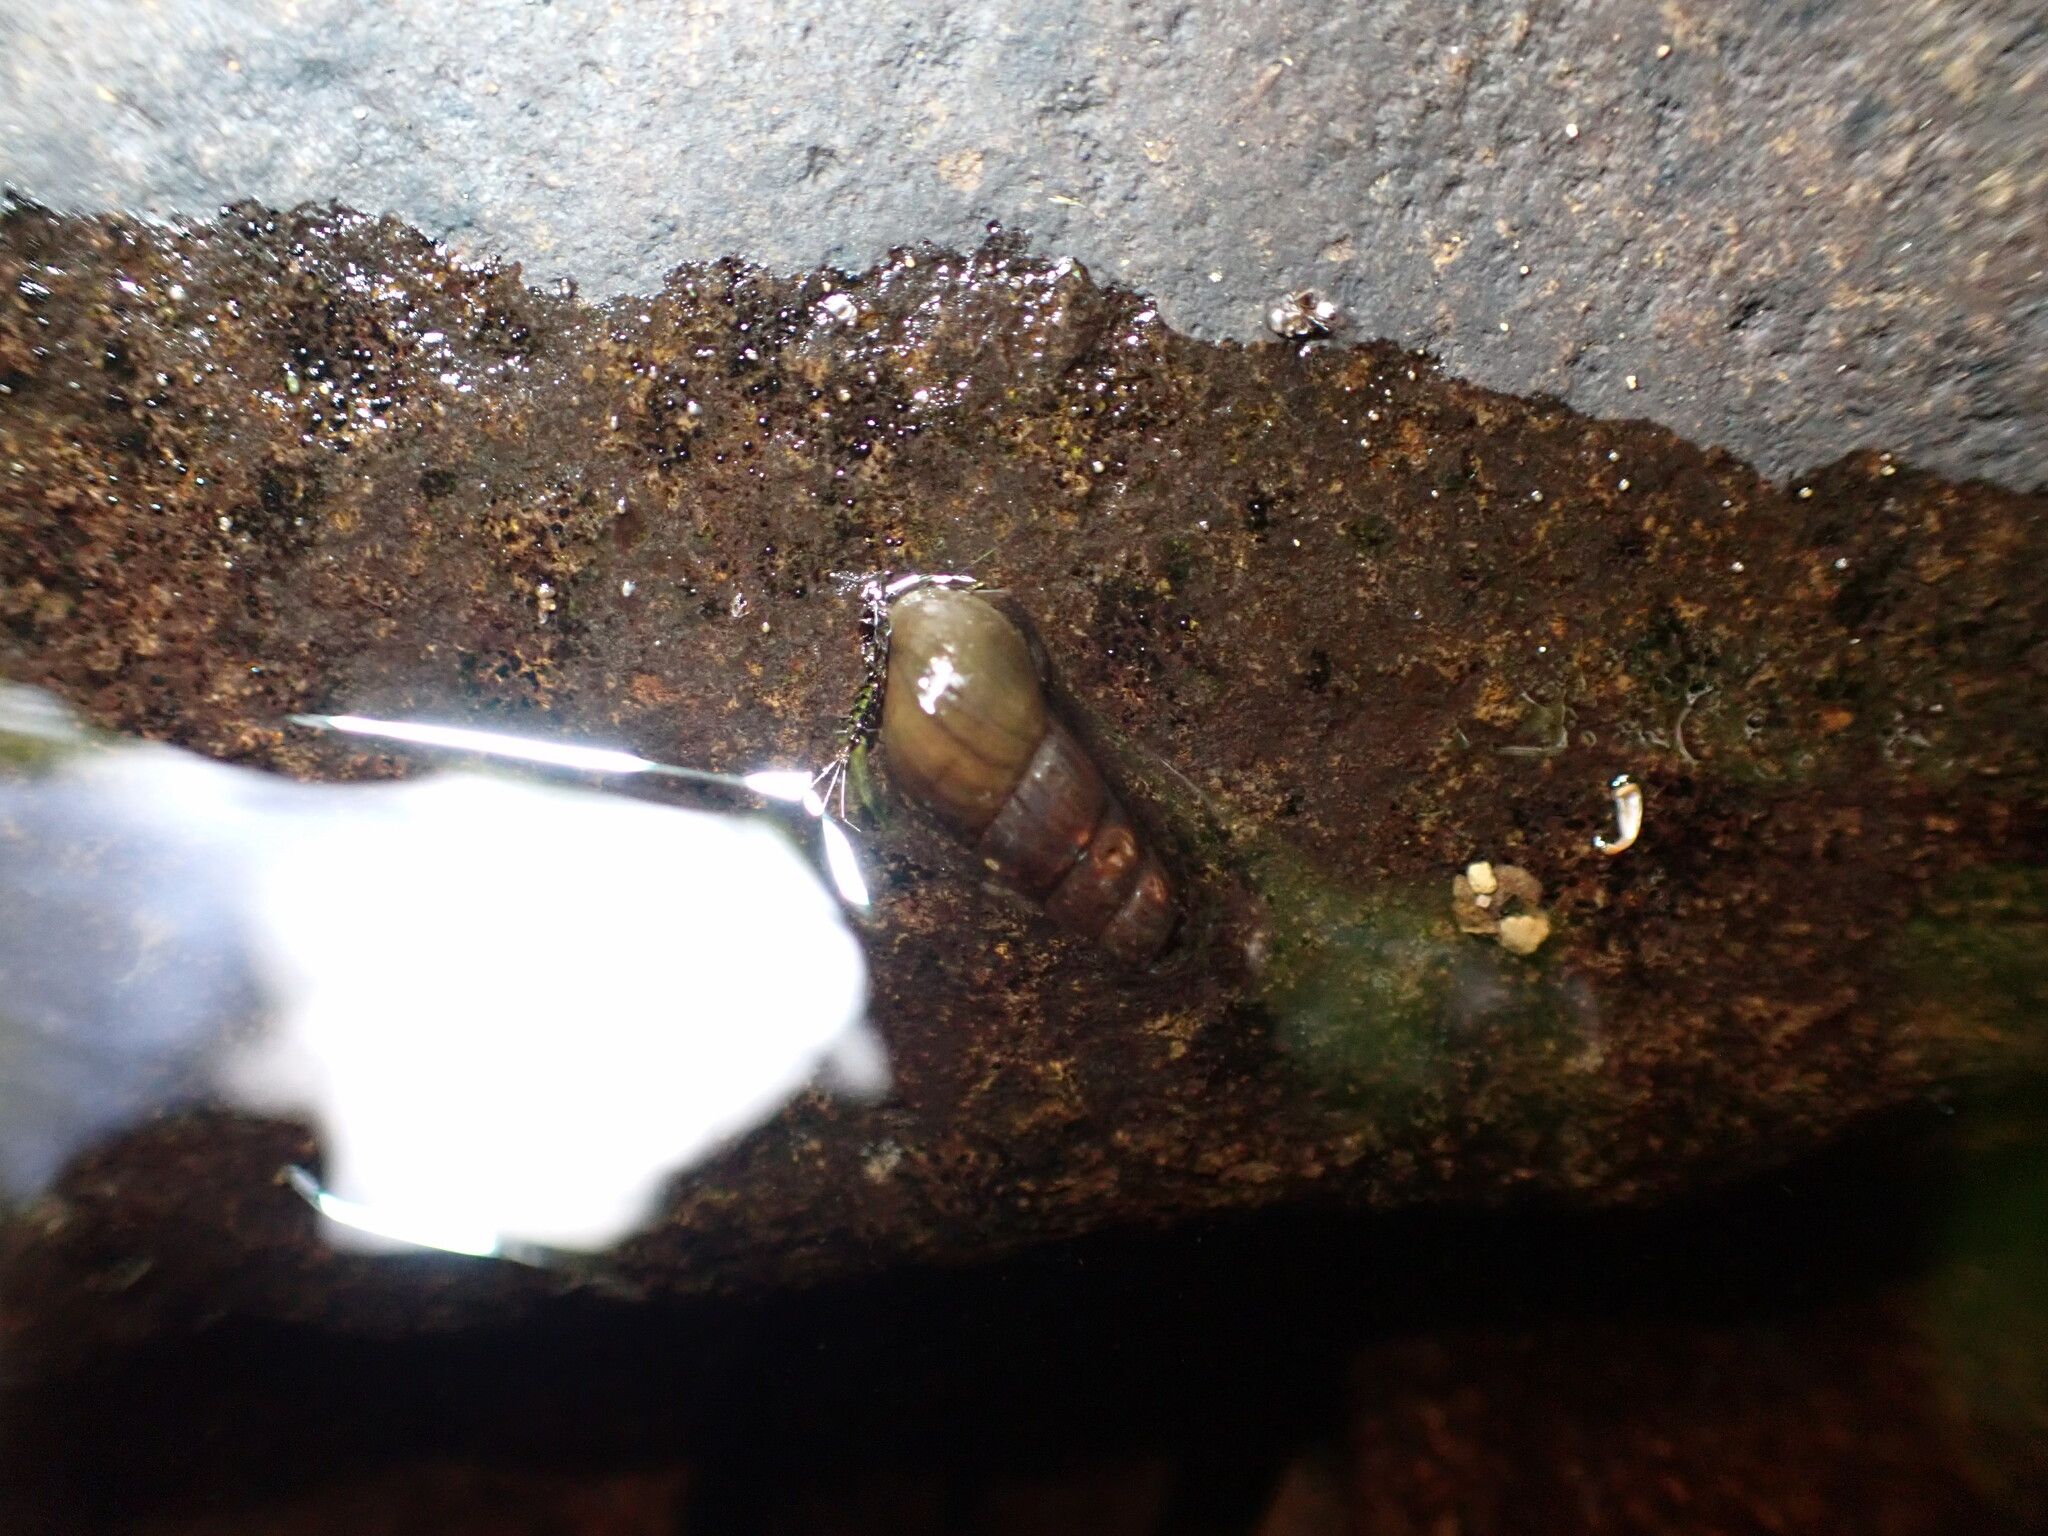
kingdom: Animalia
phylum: Mollusca
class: Gastropoda
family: Semisulcospiridae
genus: Juga
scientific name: Juga plicifera
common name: Pleated juga
